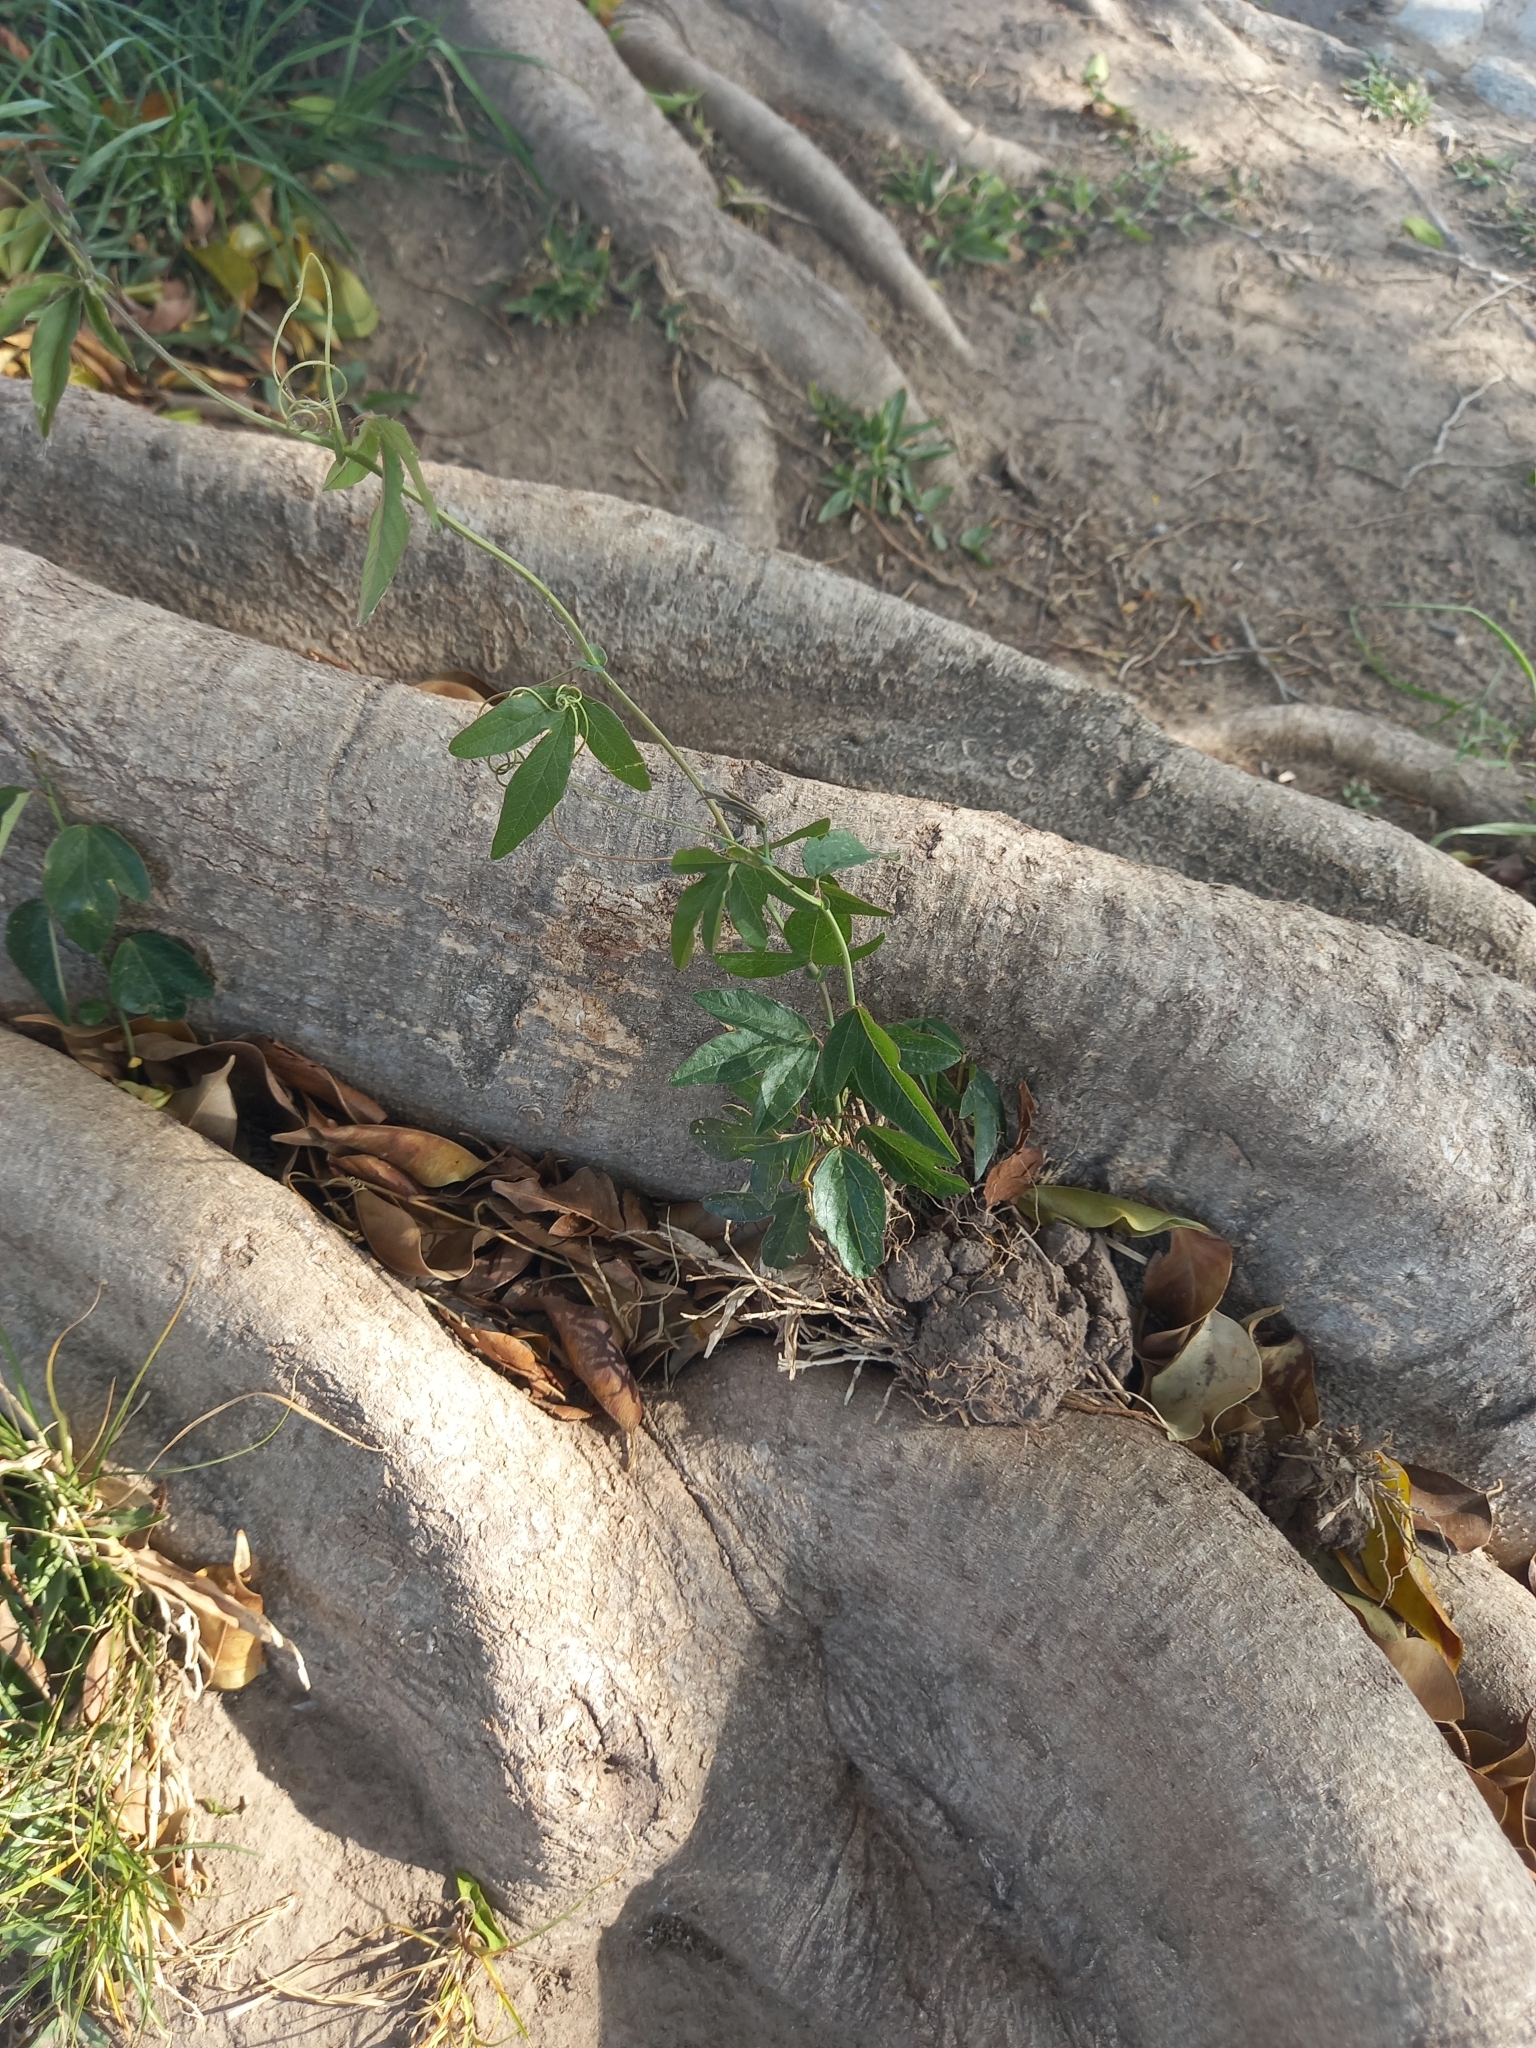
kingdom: Plantae
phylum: Tracheophyta
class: Magnoliopsida
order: Malpighiales
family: Passifloraceae
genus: Passiflora
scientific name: Passiflora caerulea
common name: Blue passionflower
